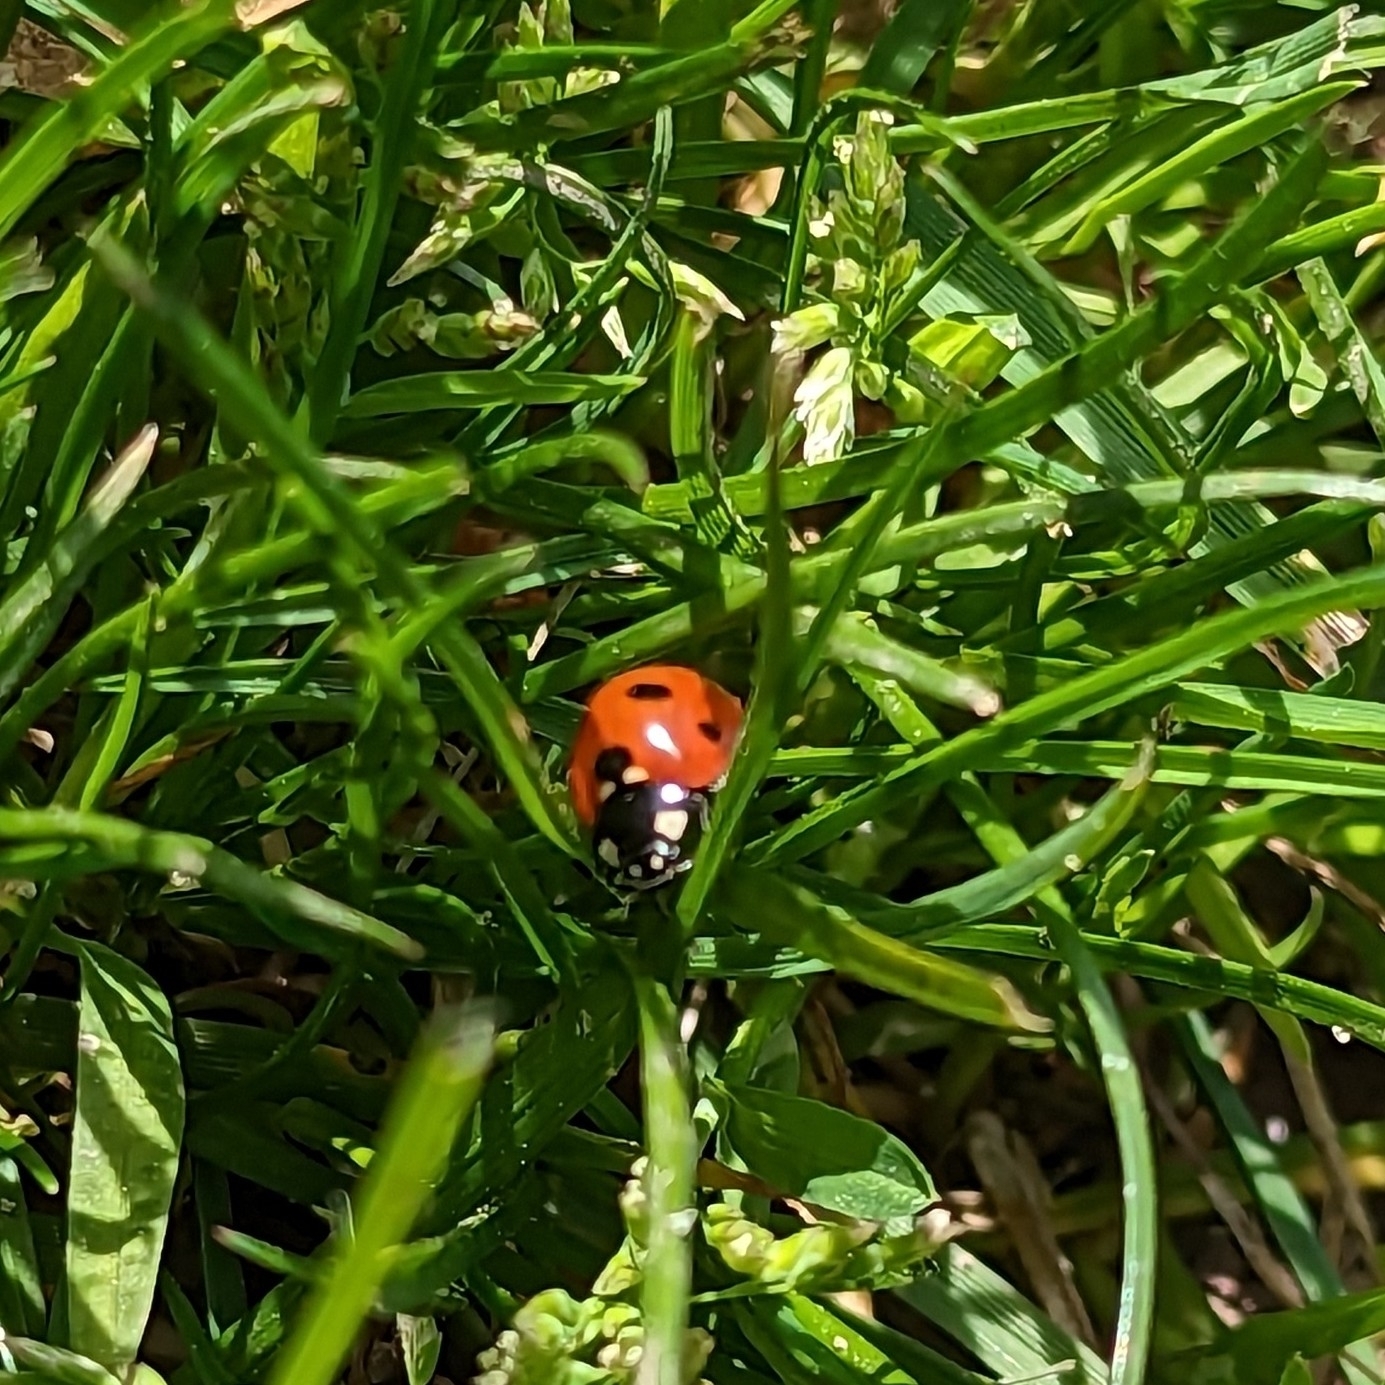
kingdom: Animalia
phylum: Arthropoda
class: Insecta
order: Coleoptera
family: Coccinellidae
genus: Coccinella
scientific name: Coccinella septempunctata
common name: Sevenspotted lady beetle
